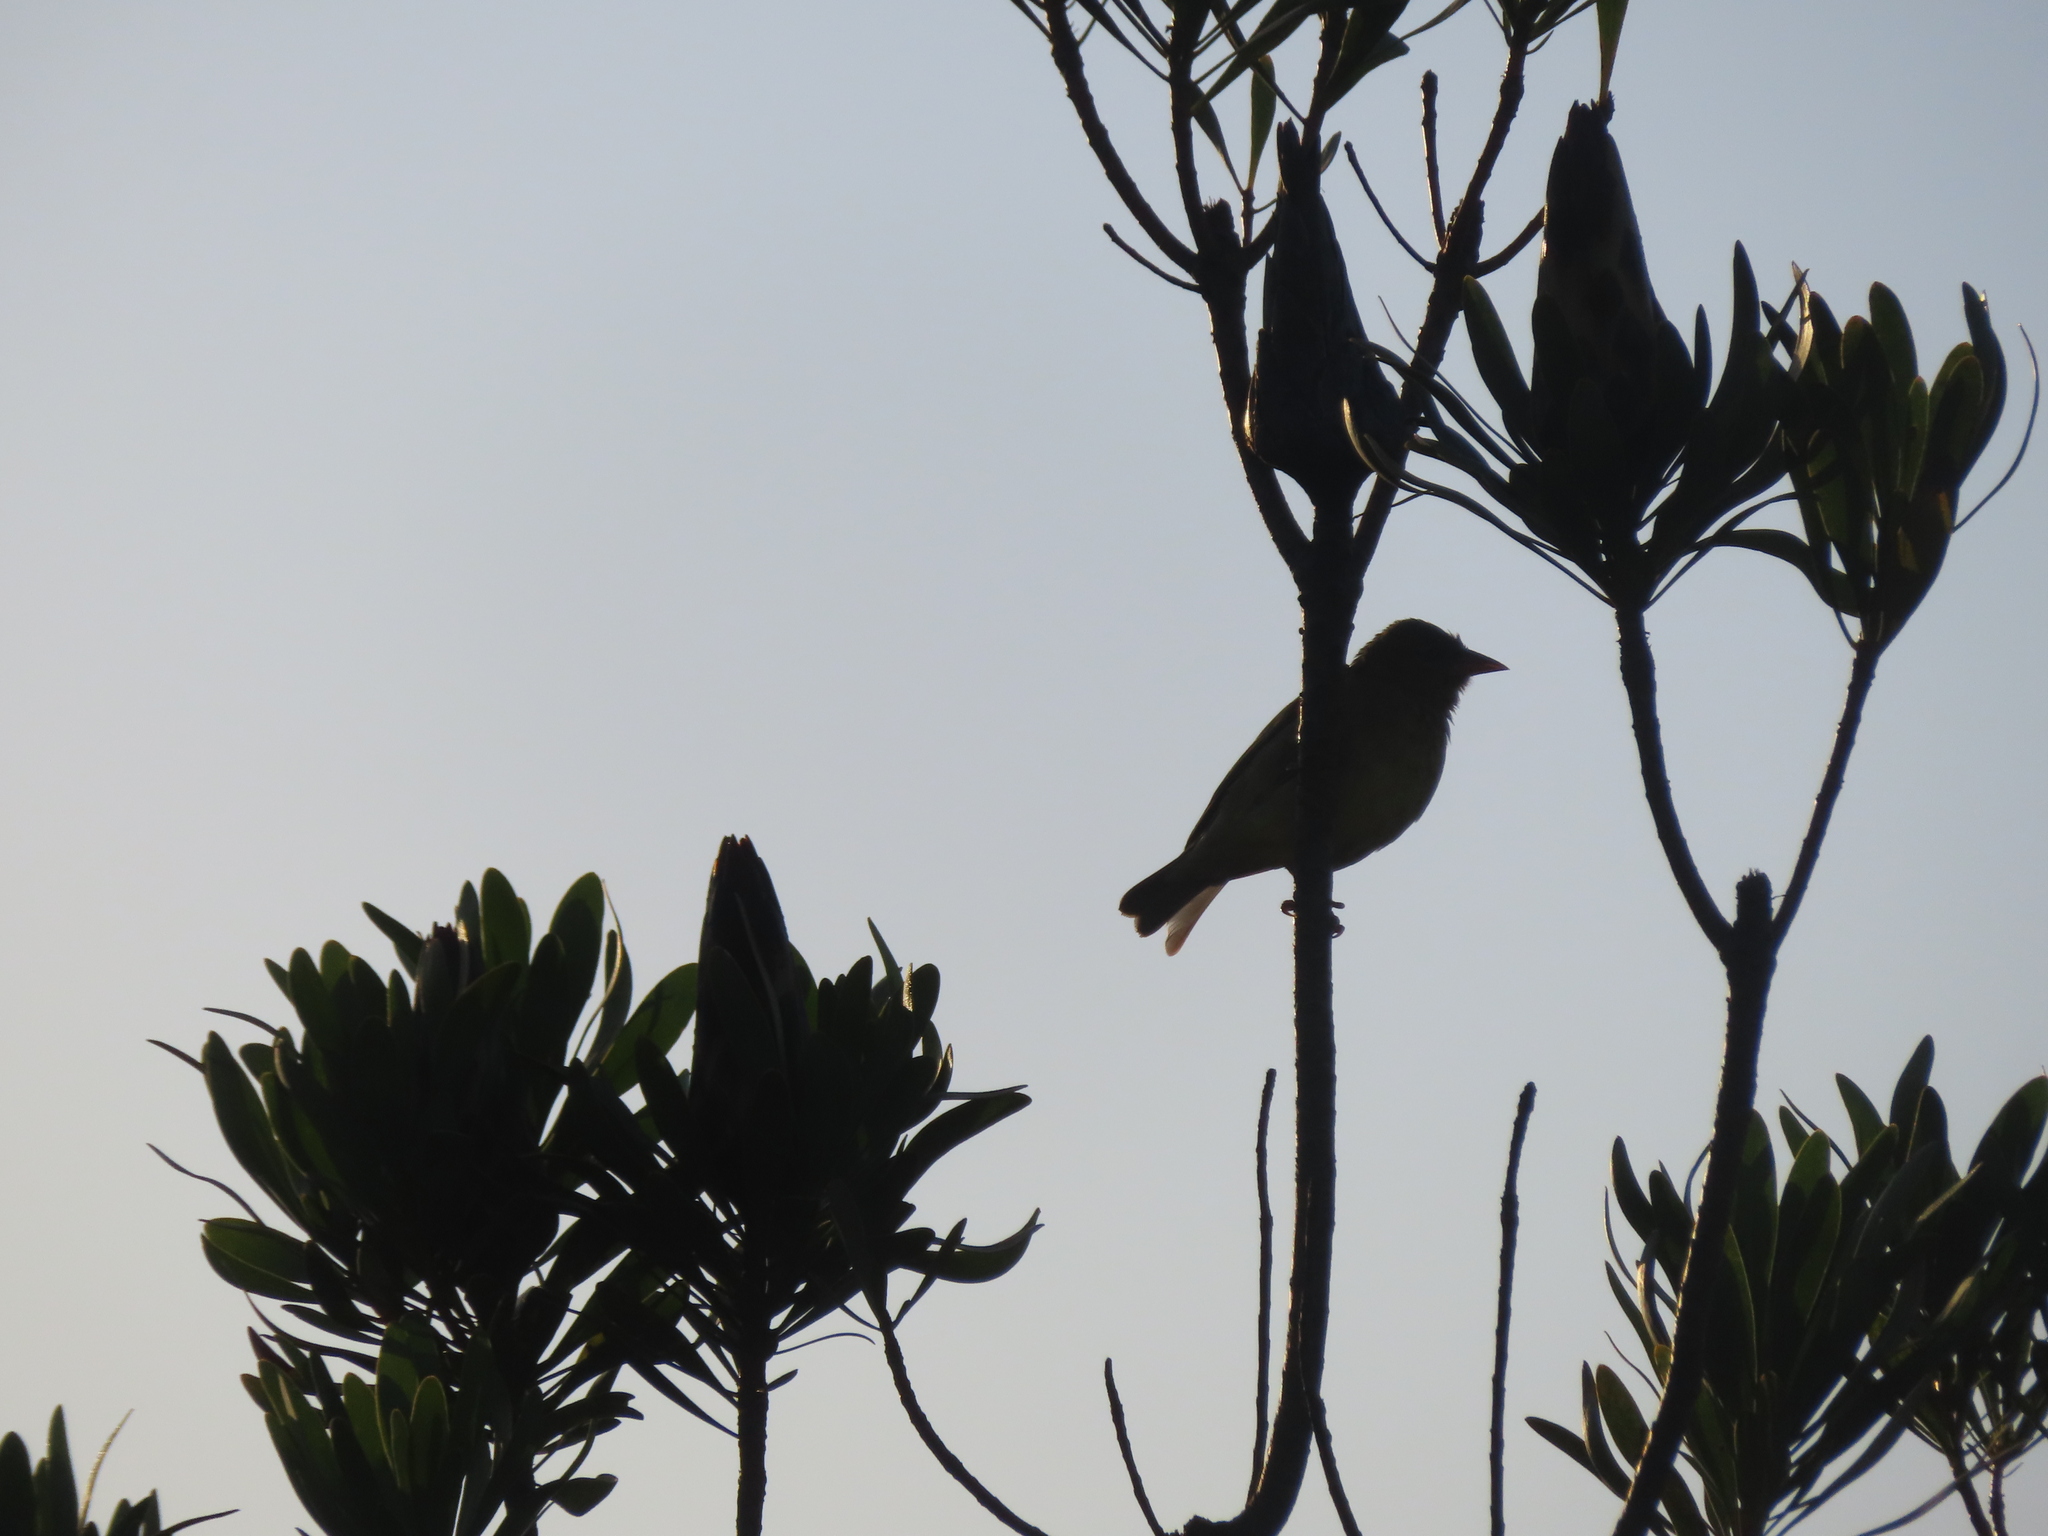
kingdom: Animalia
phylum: Chordata
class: Aves
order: Passeriformes
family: Ploceidae
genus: Ploceus
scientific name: Ploceus capensis
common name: Cape weaver
